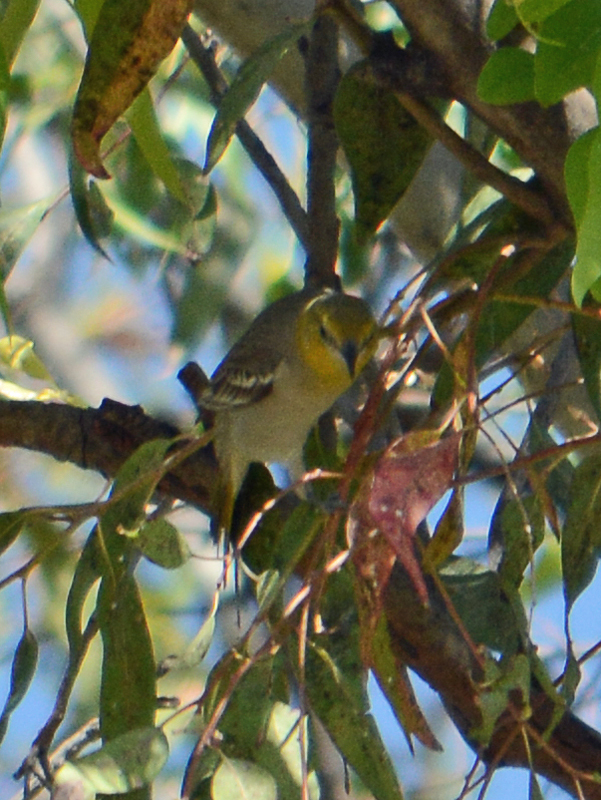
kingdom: Animalia
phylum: Chordata
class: Aves
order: Passeriformes
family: Icteridae
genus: Icterus
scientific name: Icterus bullockii
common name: Bullock's oriole
